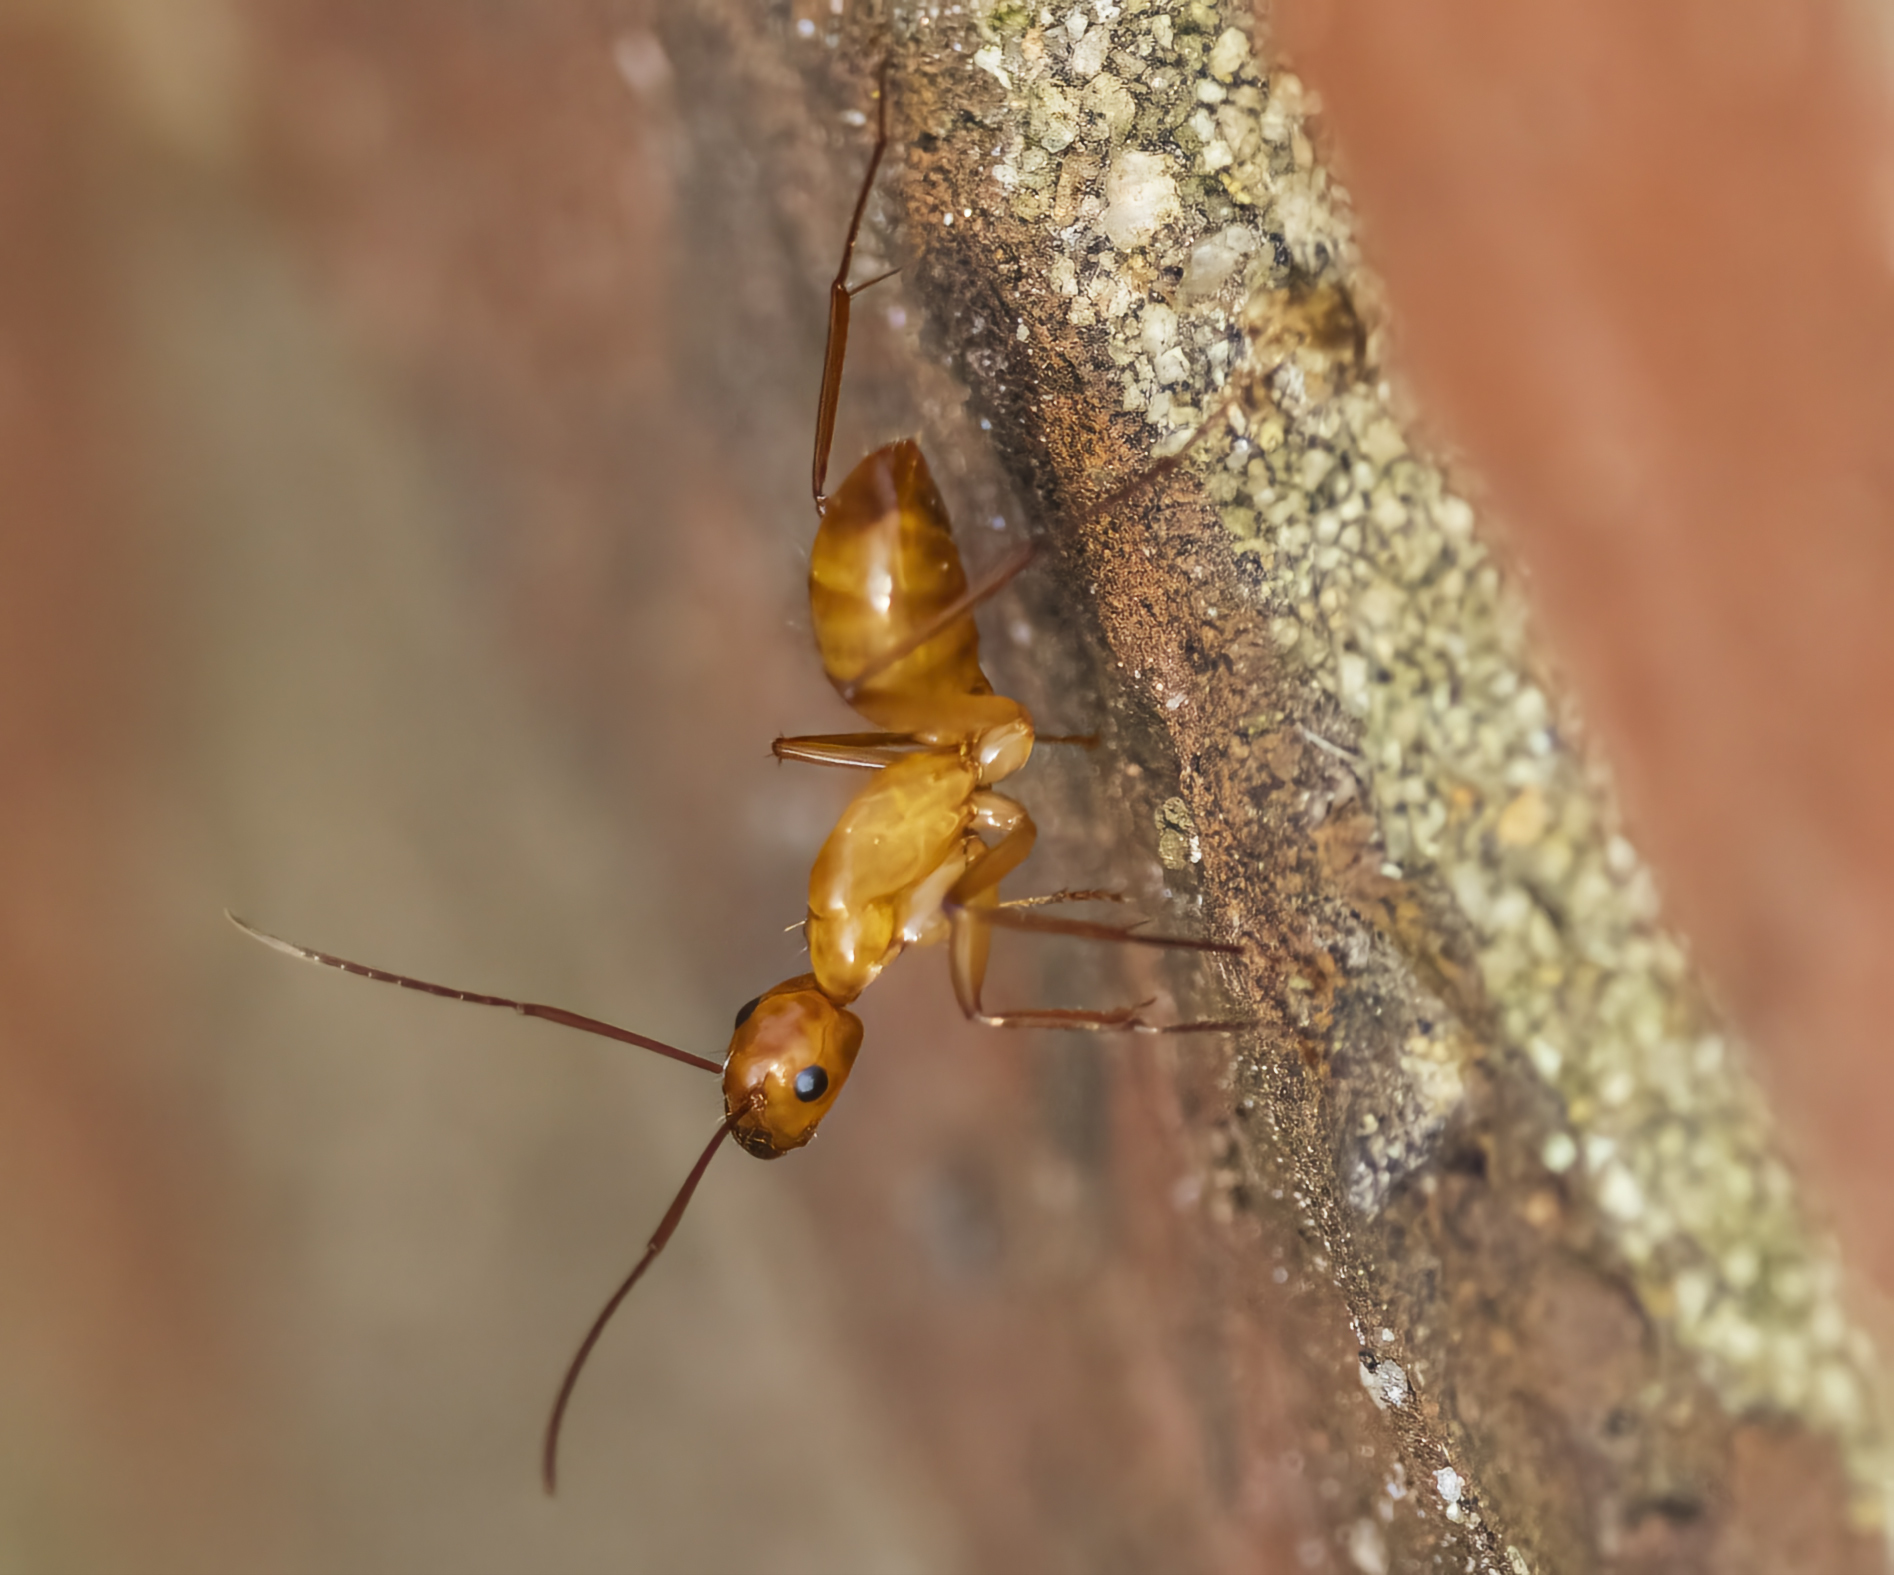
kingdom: Animalia
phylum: Arthropoda
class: Insecta
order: Hymenoptera
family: Formicidae
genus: Camponotus
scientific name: Camponotus castaneus
